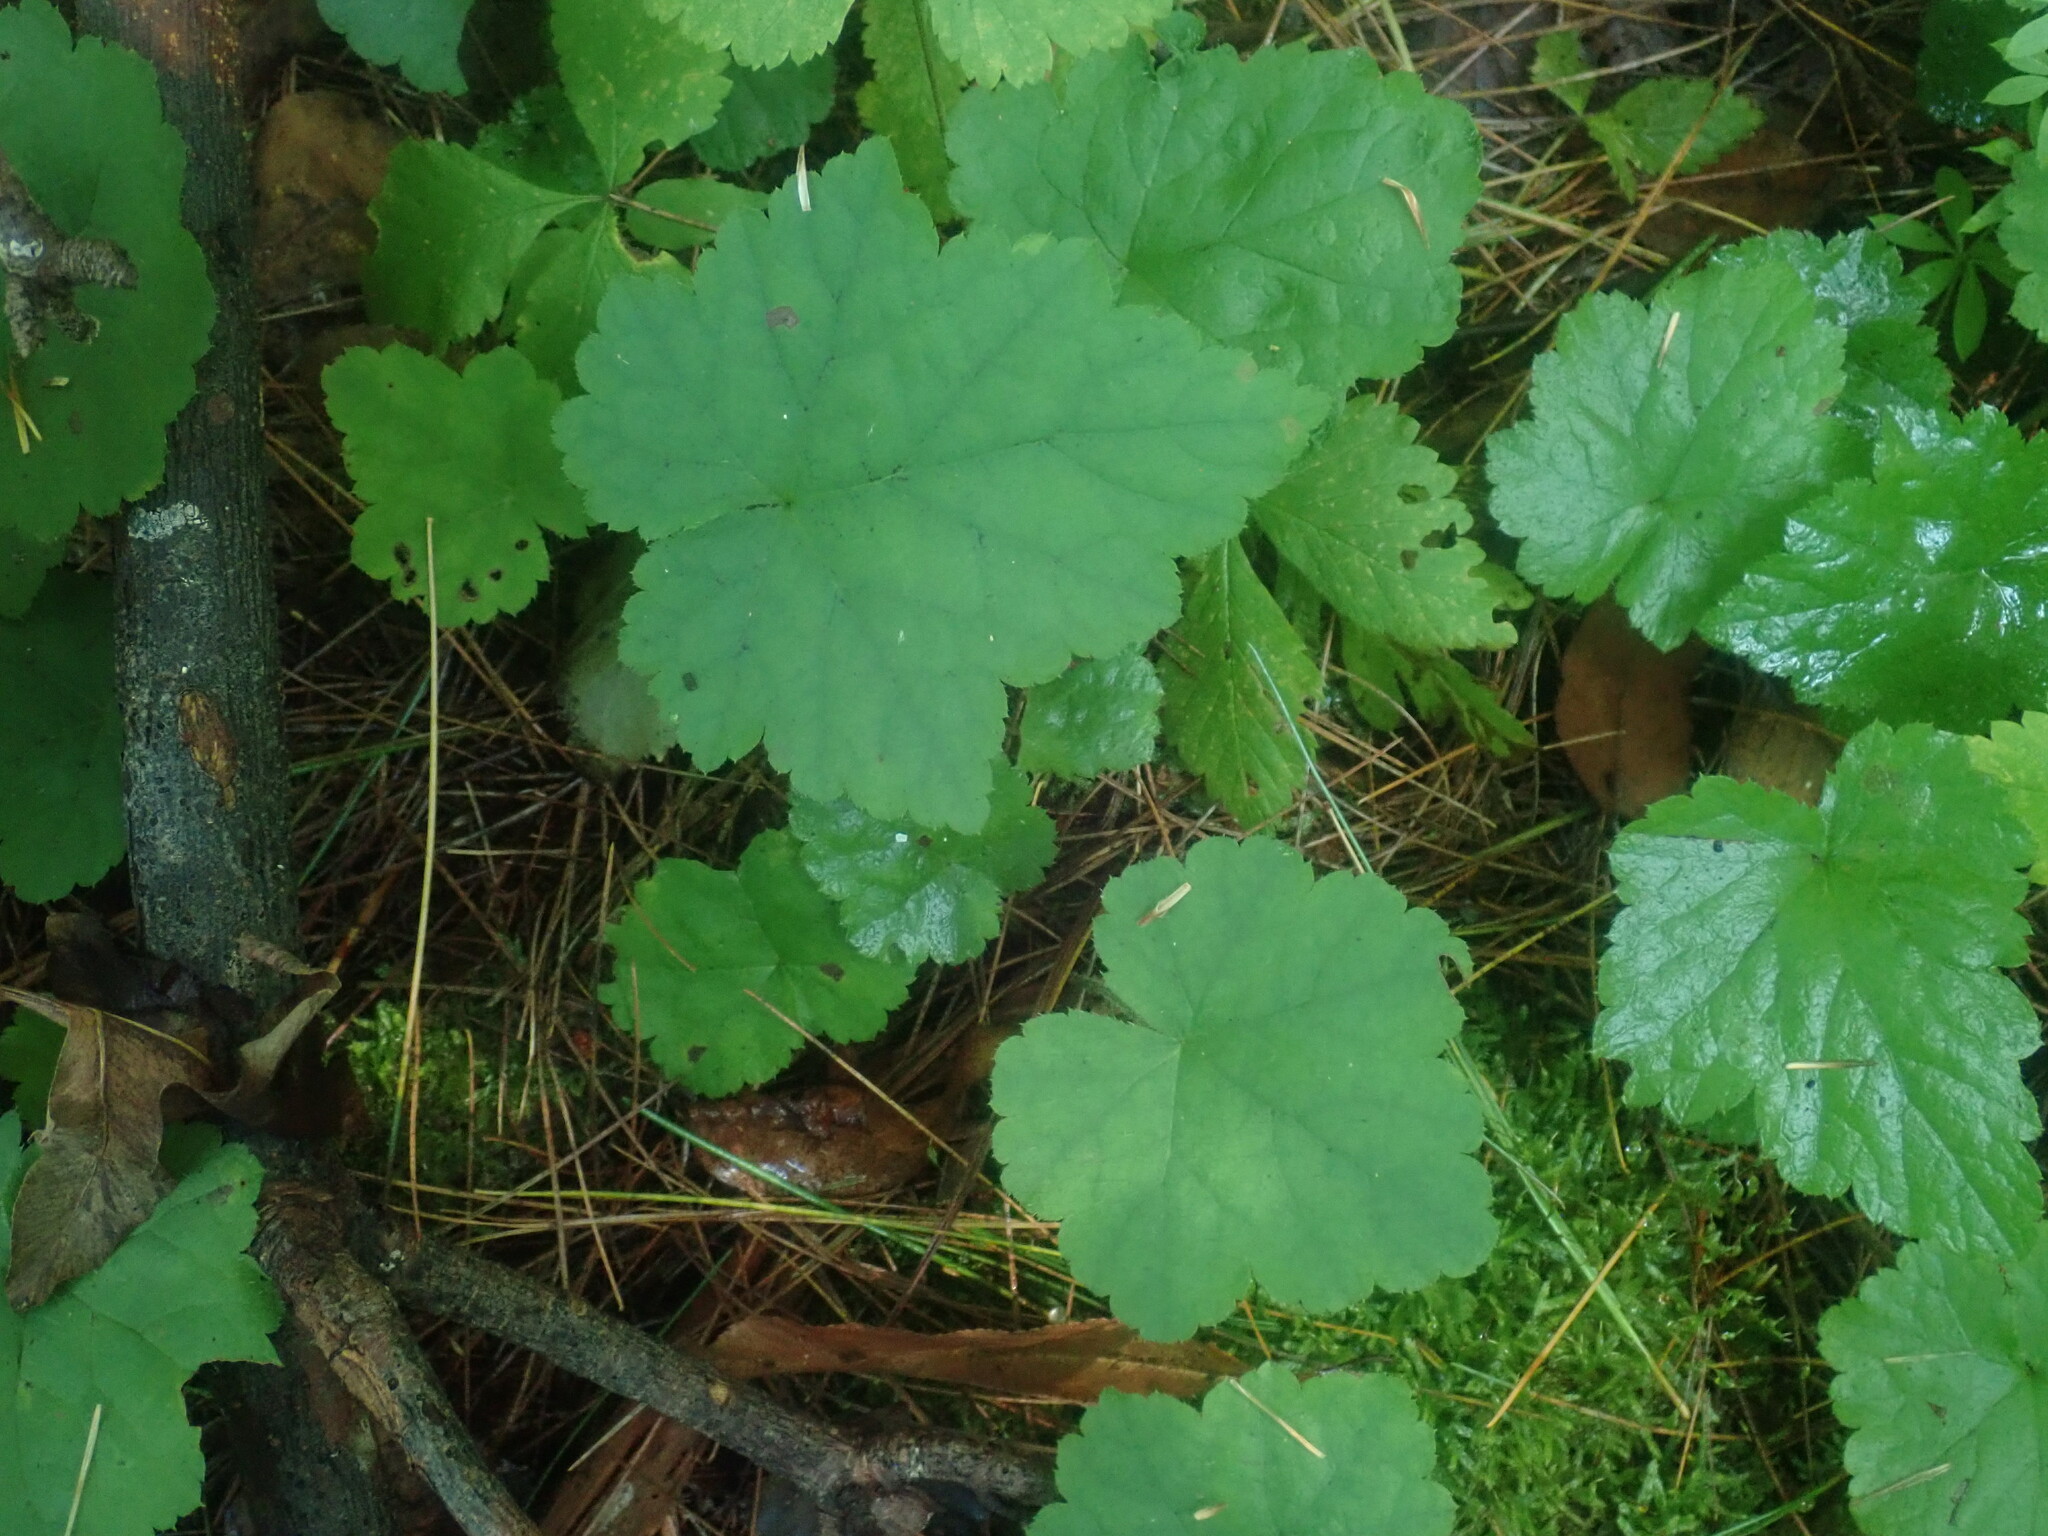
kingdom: Plantae
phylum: Tracheophyta
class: Magnoliopsida
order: Saxifragales
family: Saxifragaceae
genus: Tiarella
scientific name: Tiarella stolonifera
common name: Stoloniferous foamflower
